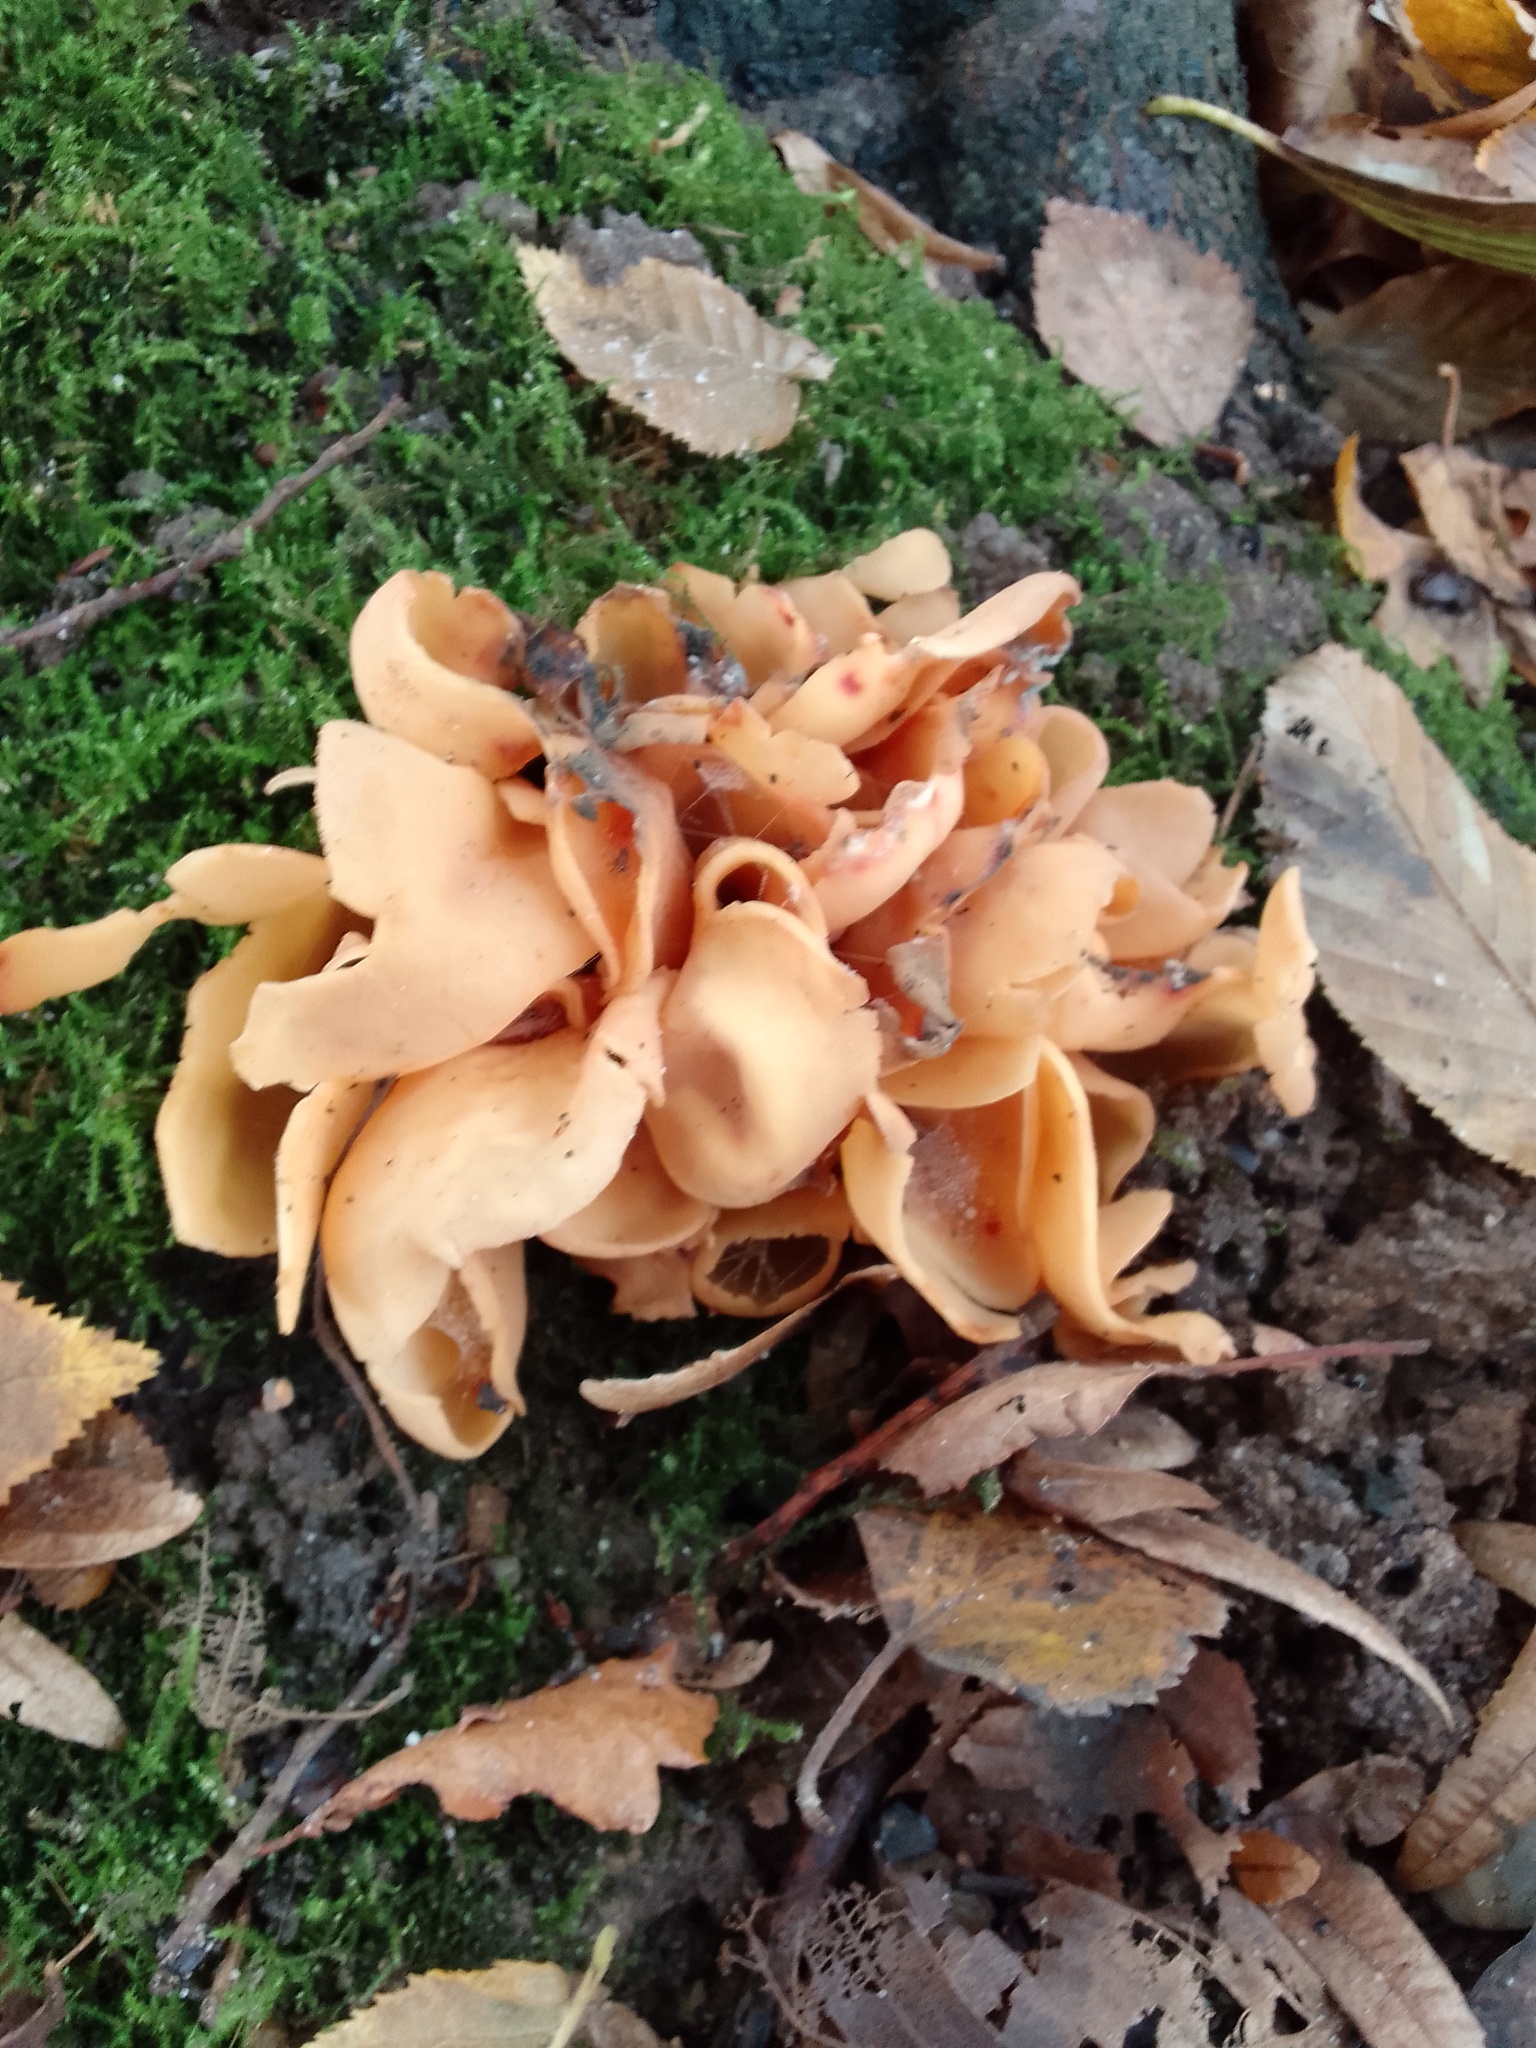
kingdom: Fungi
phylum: Ascomycota
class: Pezizomycetes
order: Pezizales
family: Otideaceae
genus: Otidea
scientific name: Otidea onotica
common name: Hare's ear
